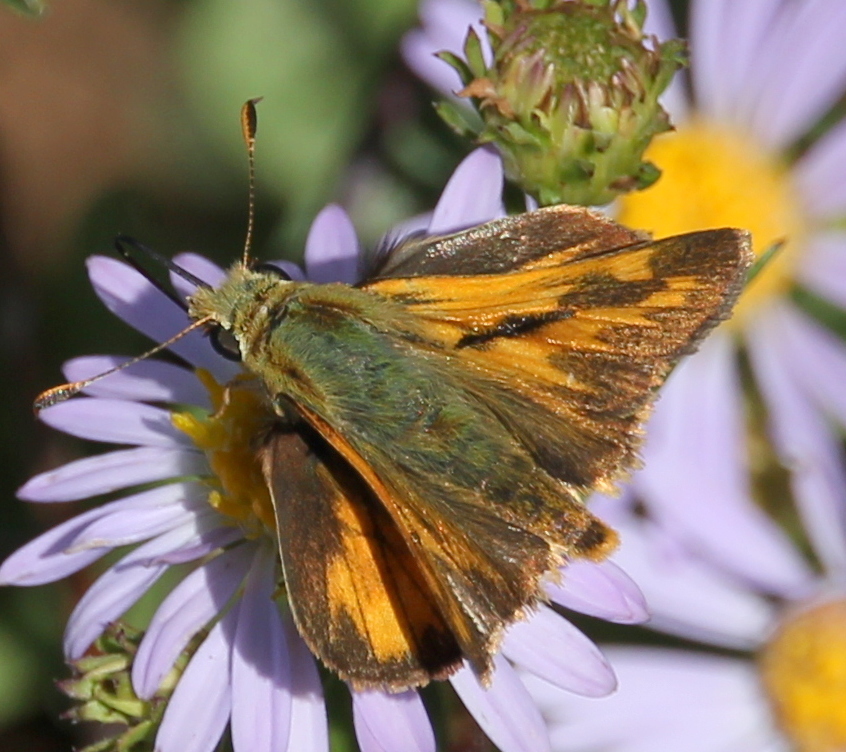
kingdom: Animalia
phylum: Arthropoda
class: Insecta
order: Lepidoptera
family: Hesperiidae
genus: Ochlodes
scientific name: Ochlodes sylvanoides
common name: Woodland skipper
